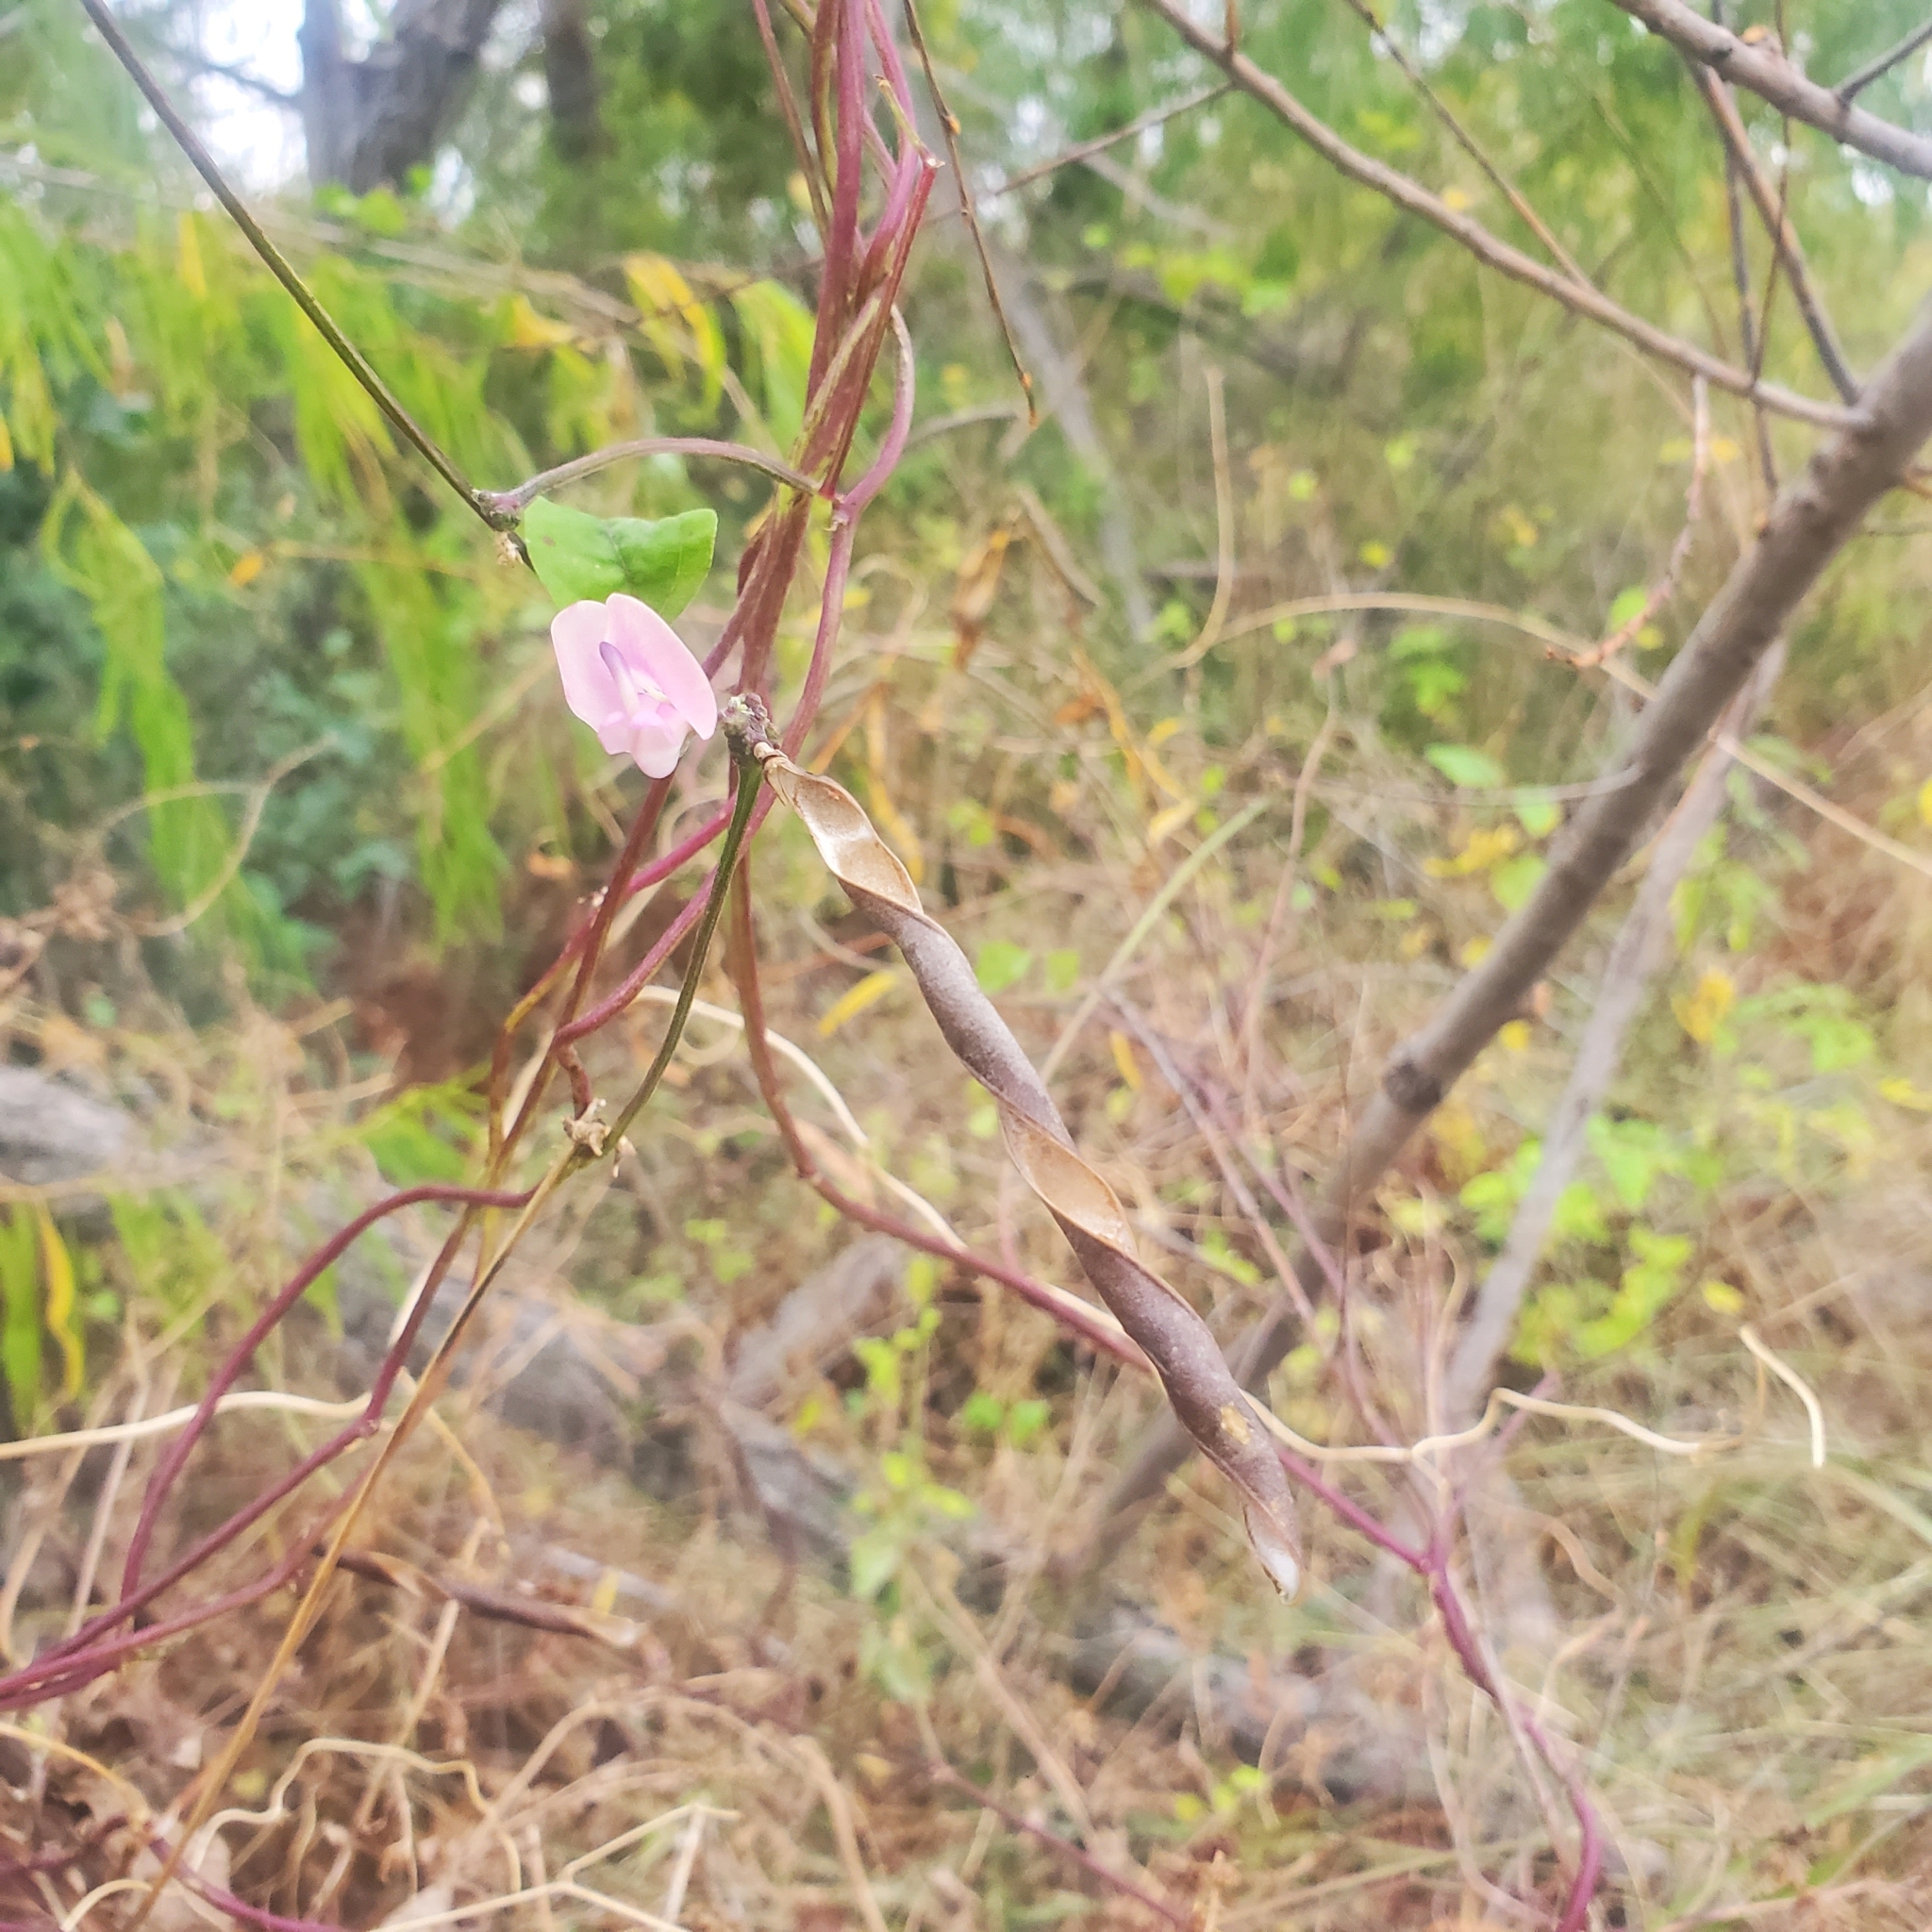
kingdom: Plantae
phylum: Tracheophyta
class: Magnoliopsida
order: Fabales
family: Fabaceae
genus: Strophostyles
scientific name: Strophostyles helvola
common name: Trailing wild bean
